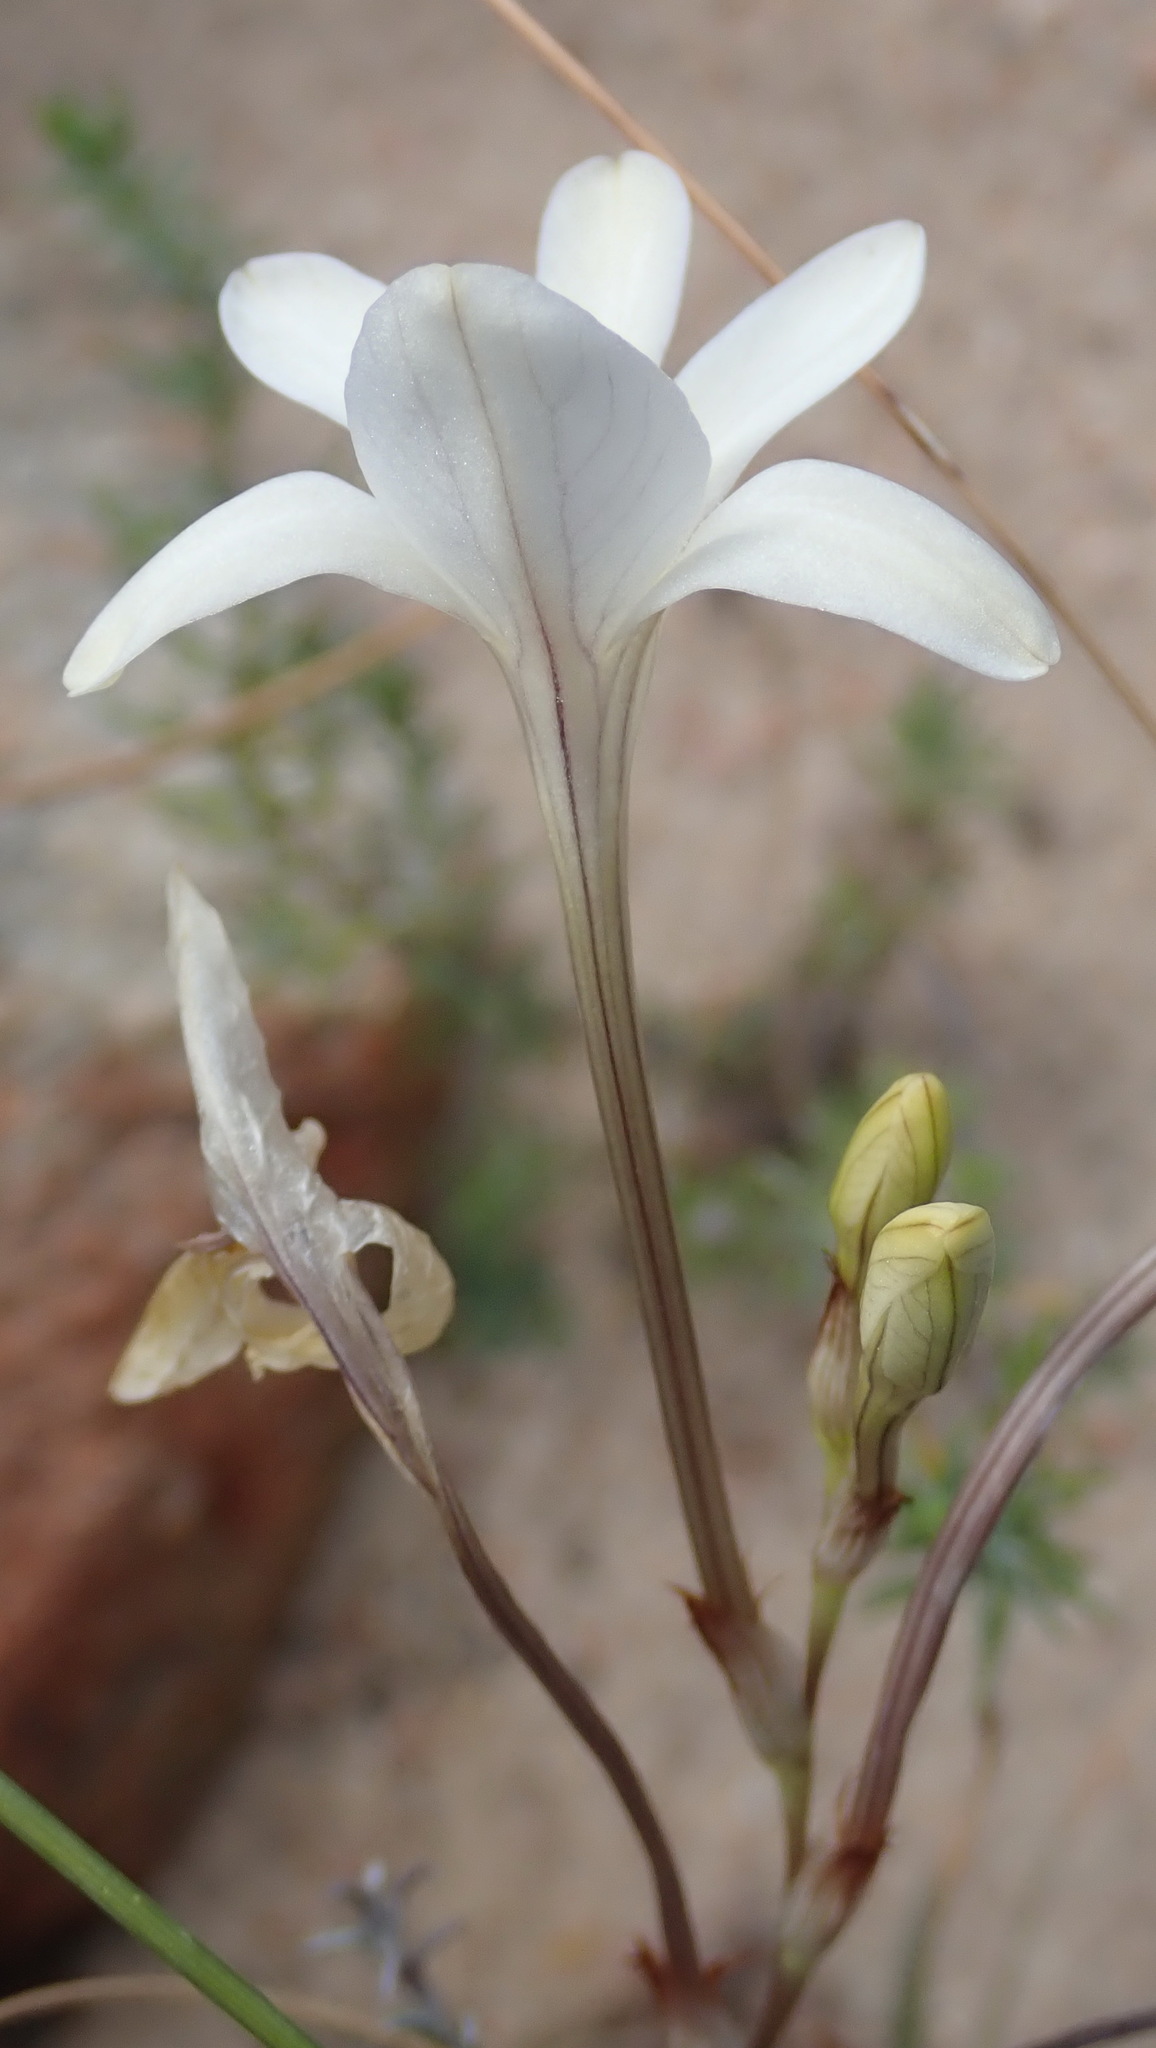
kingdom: Plantae
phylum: Tracheophyta
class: Liliopsida
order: Asparagales
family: Iridaceae
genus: Tritonia
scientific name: Tritonia pallida
